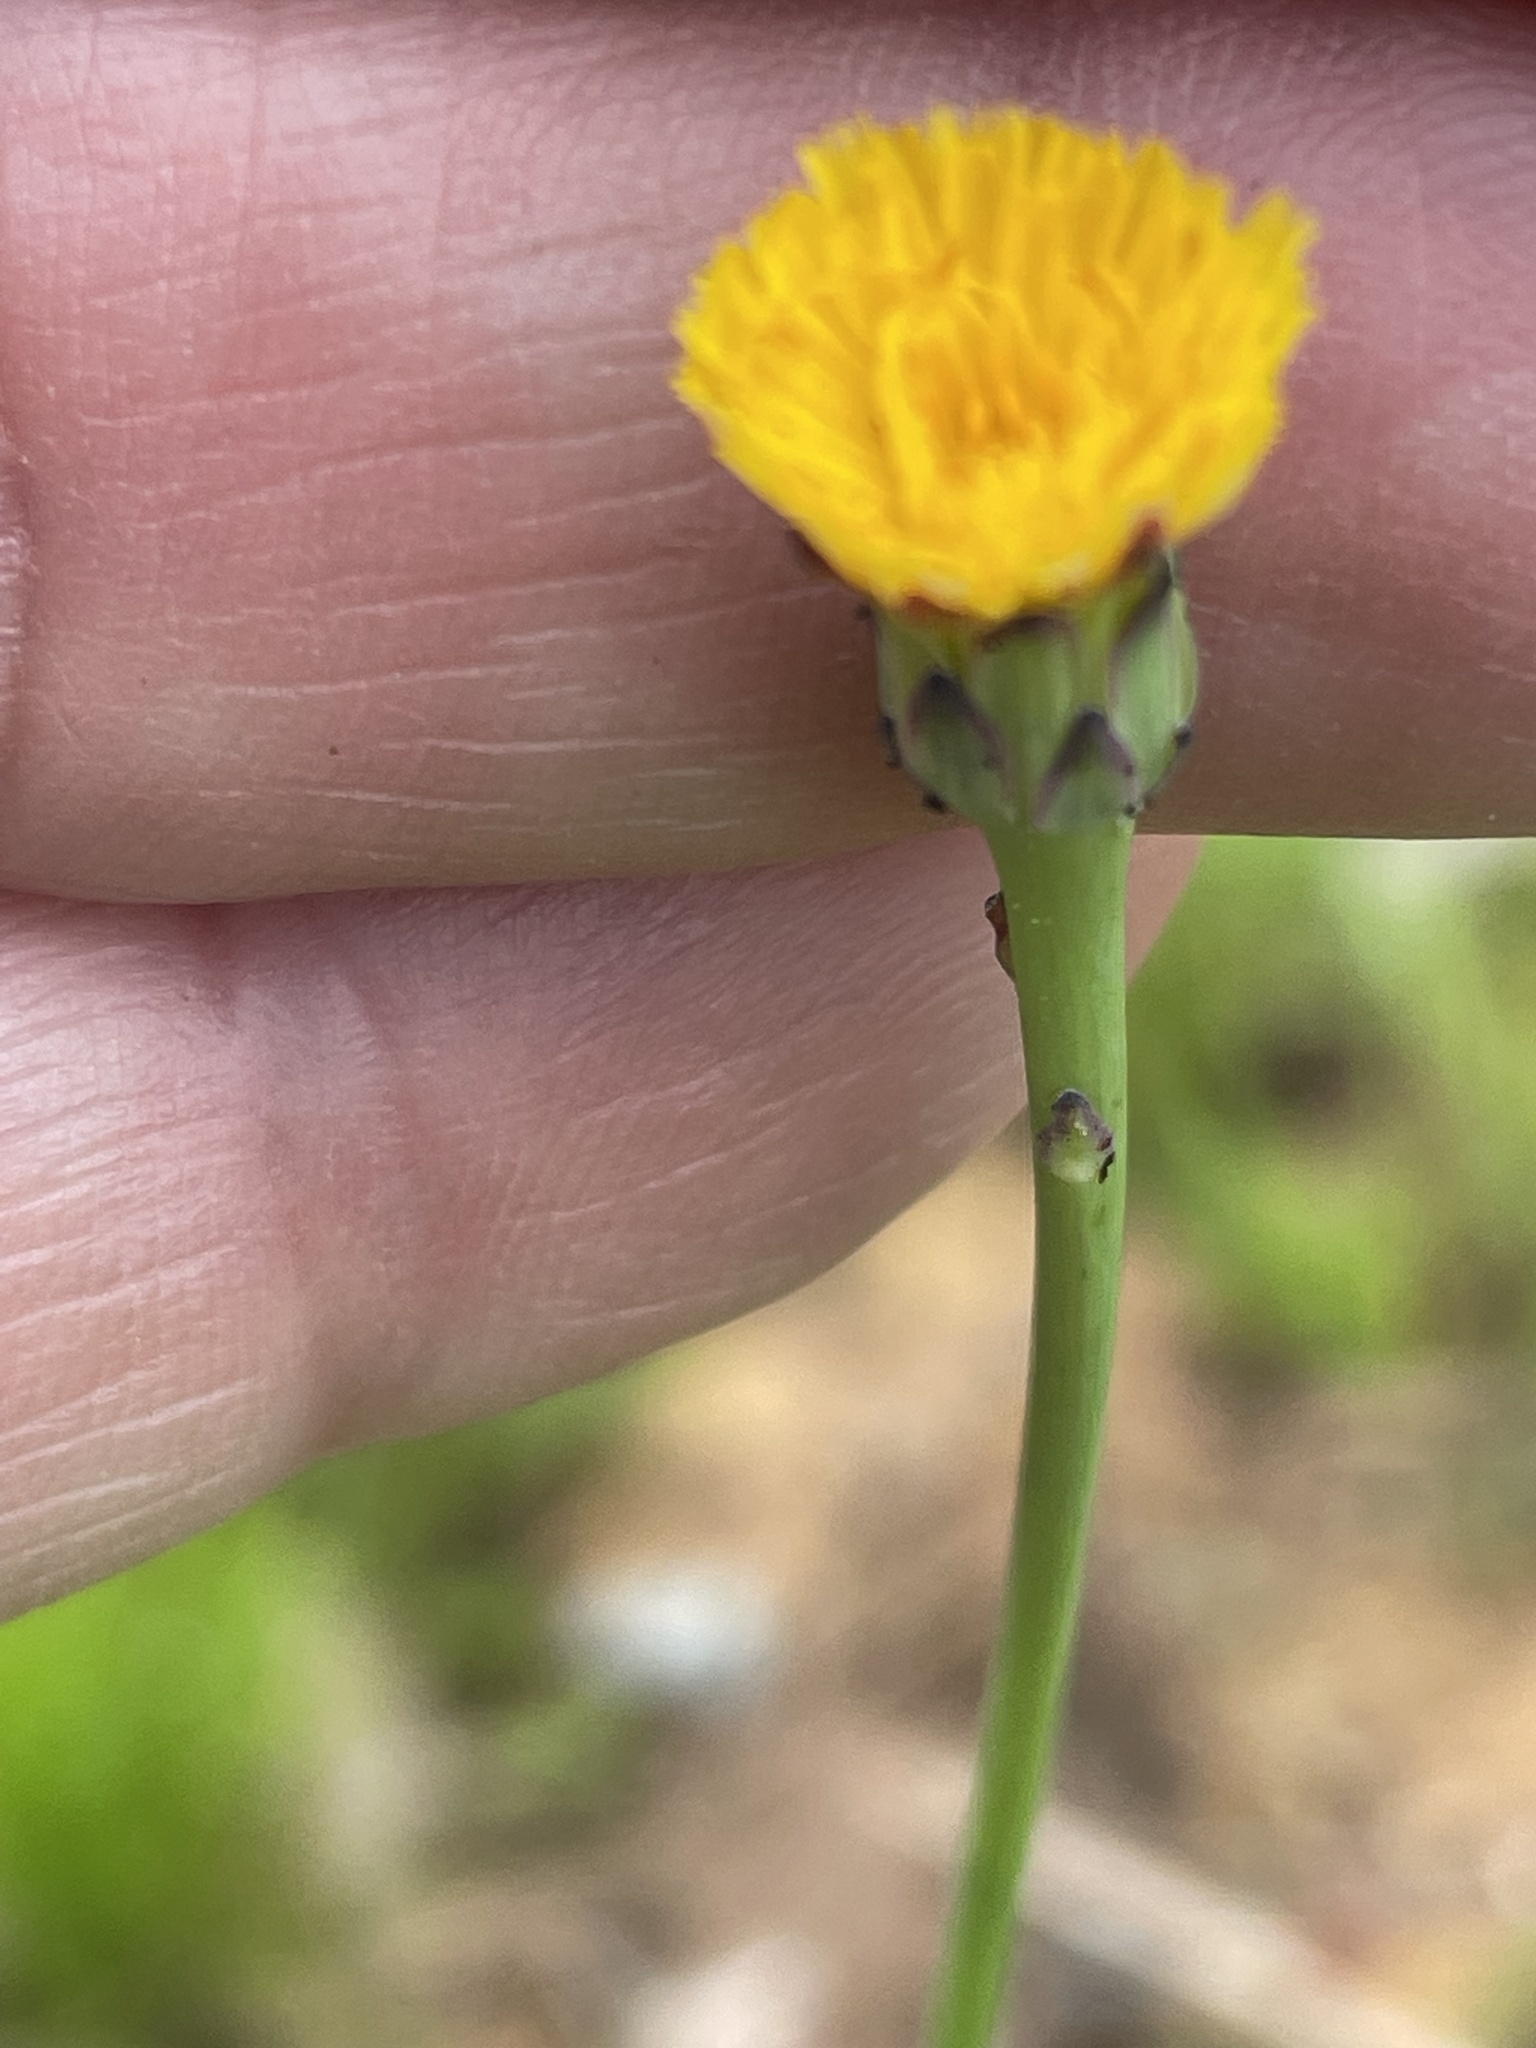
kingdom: Plantae
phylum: Tracheophyta
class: Magnoliopsida
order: Asterales
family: Asteraceae
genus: Hypochaeris
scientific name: Hypochaeris glabra
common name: Smooth catsear
